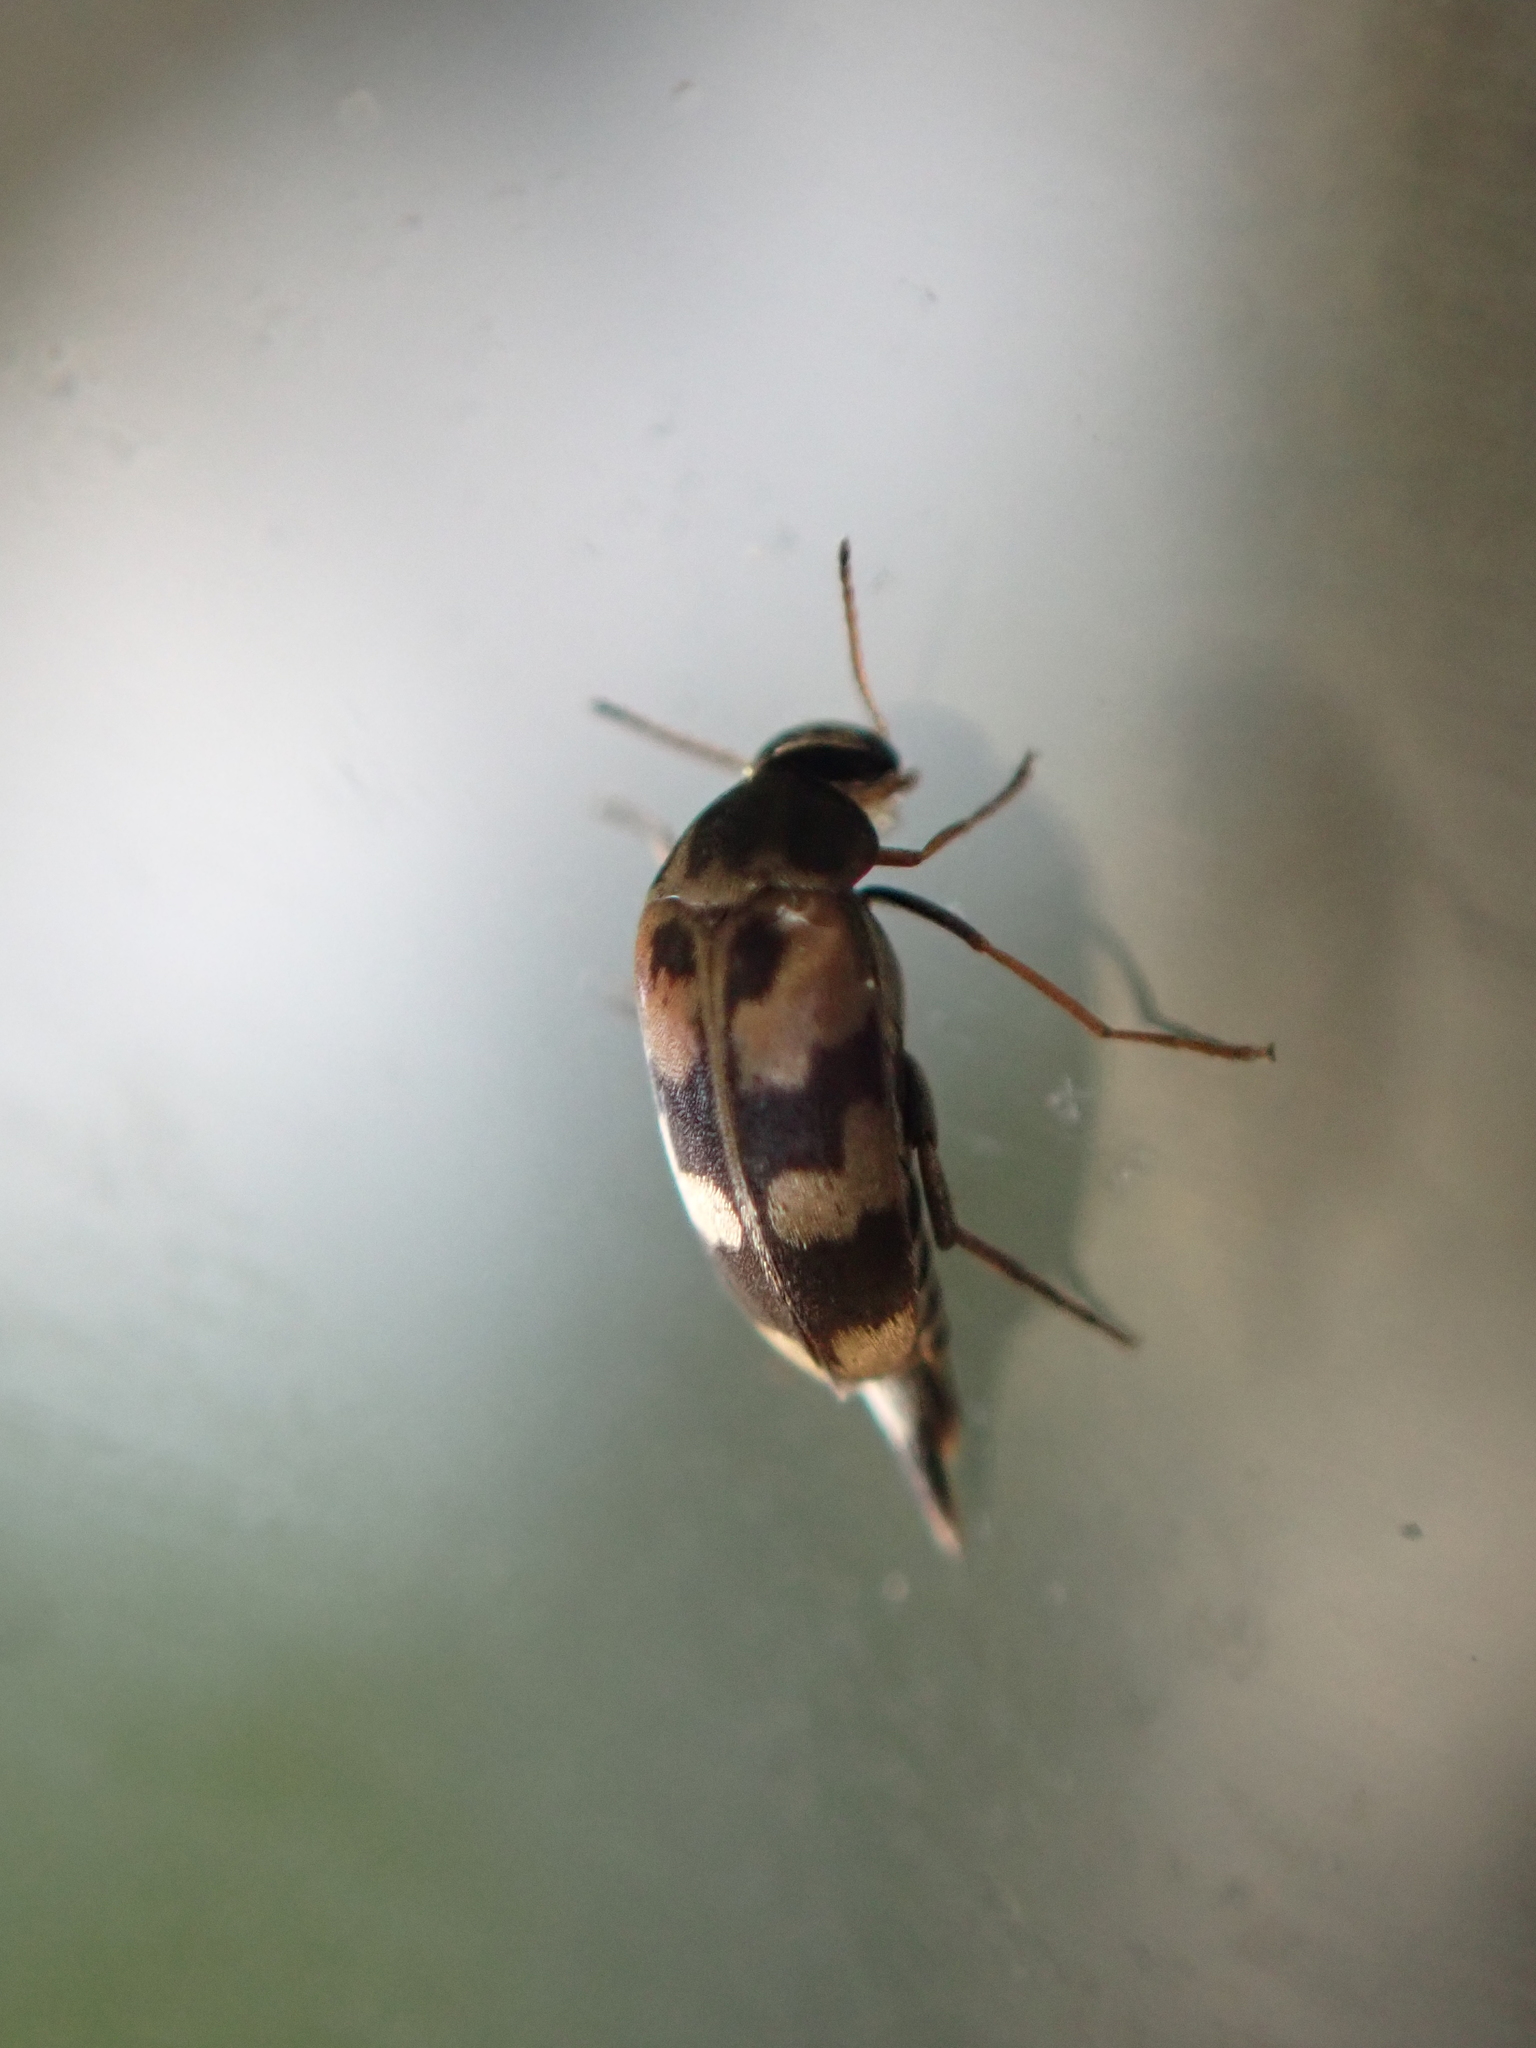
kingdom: Animalia
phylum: Arthropoda
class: Insecta
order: Coleoptera
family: Mordellidae
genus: Falsomordellistena
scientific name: Falsomordellistena pubescens
